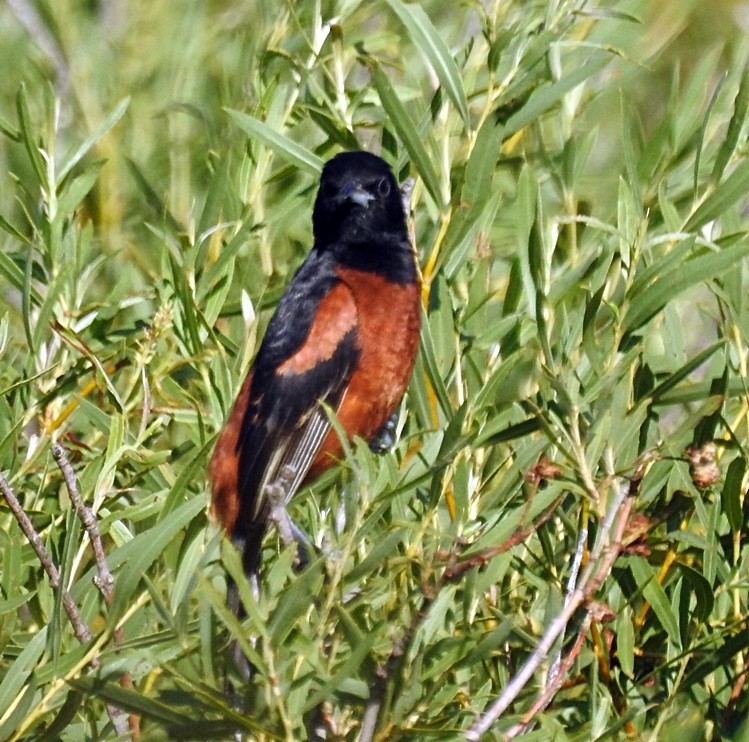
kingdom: Animalia
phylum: Chordata
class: Aves
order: Passeriformes
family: Icteridae
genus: Icterus
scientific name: Icterus spurius
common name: Orchard oriole
